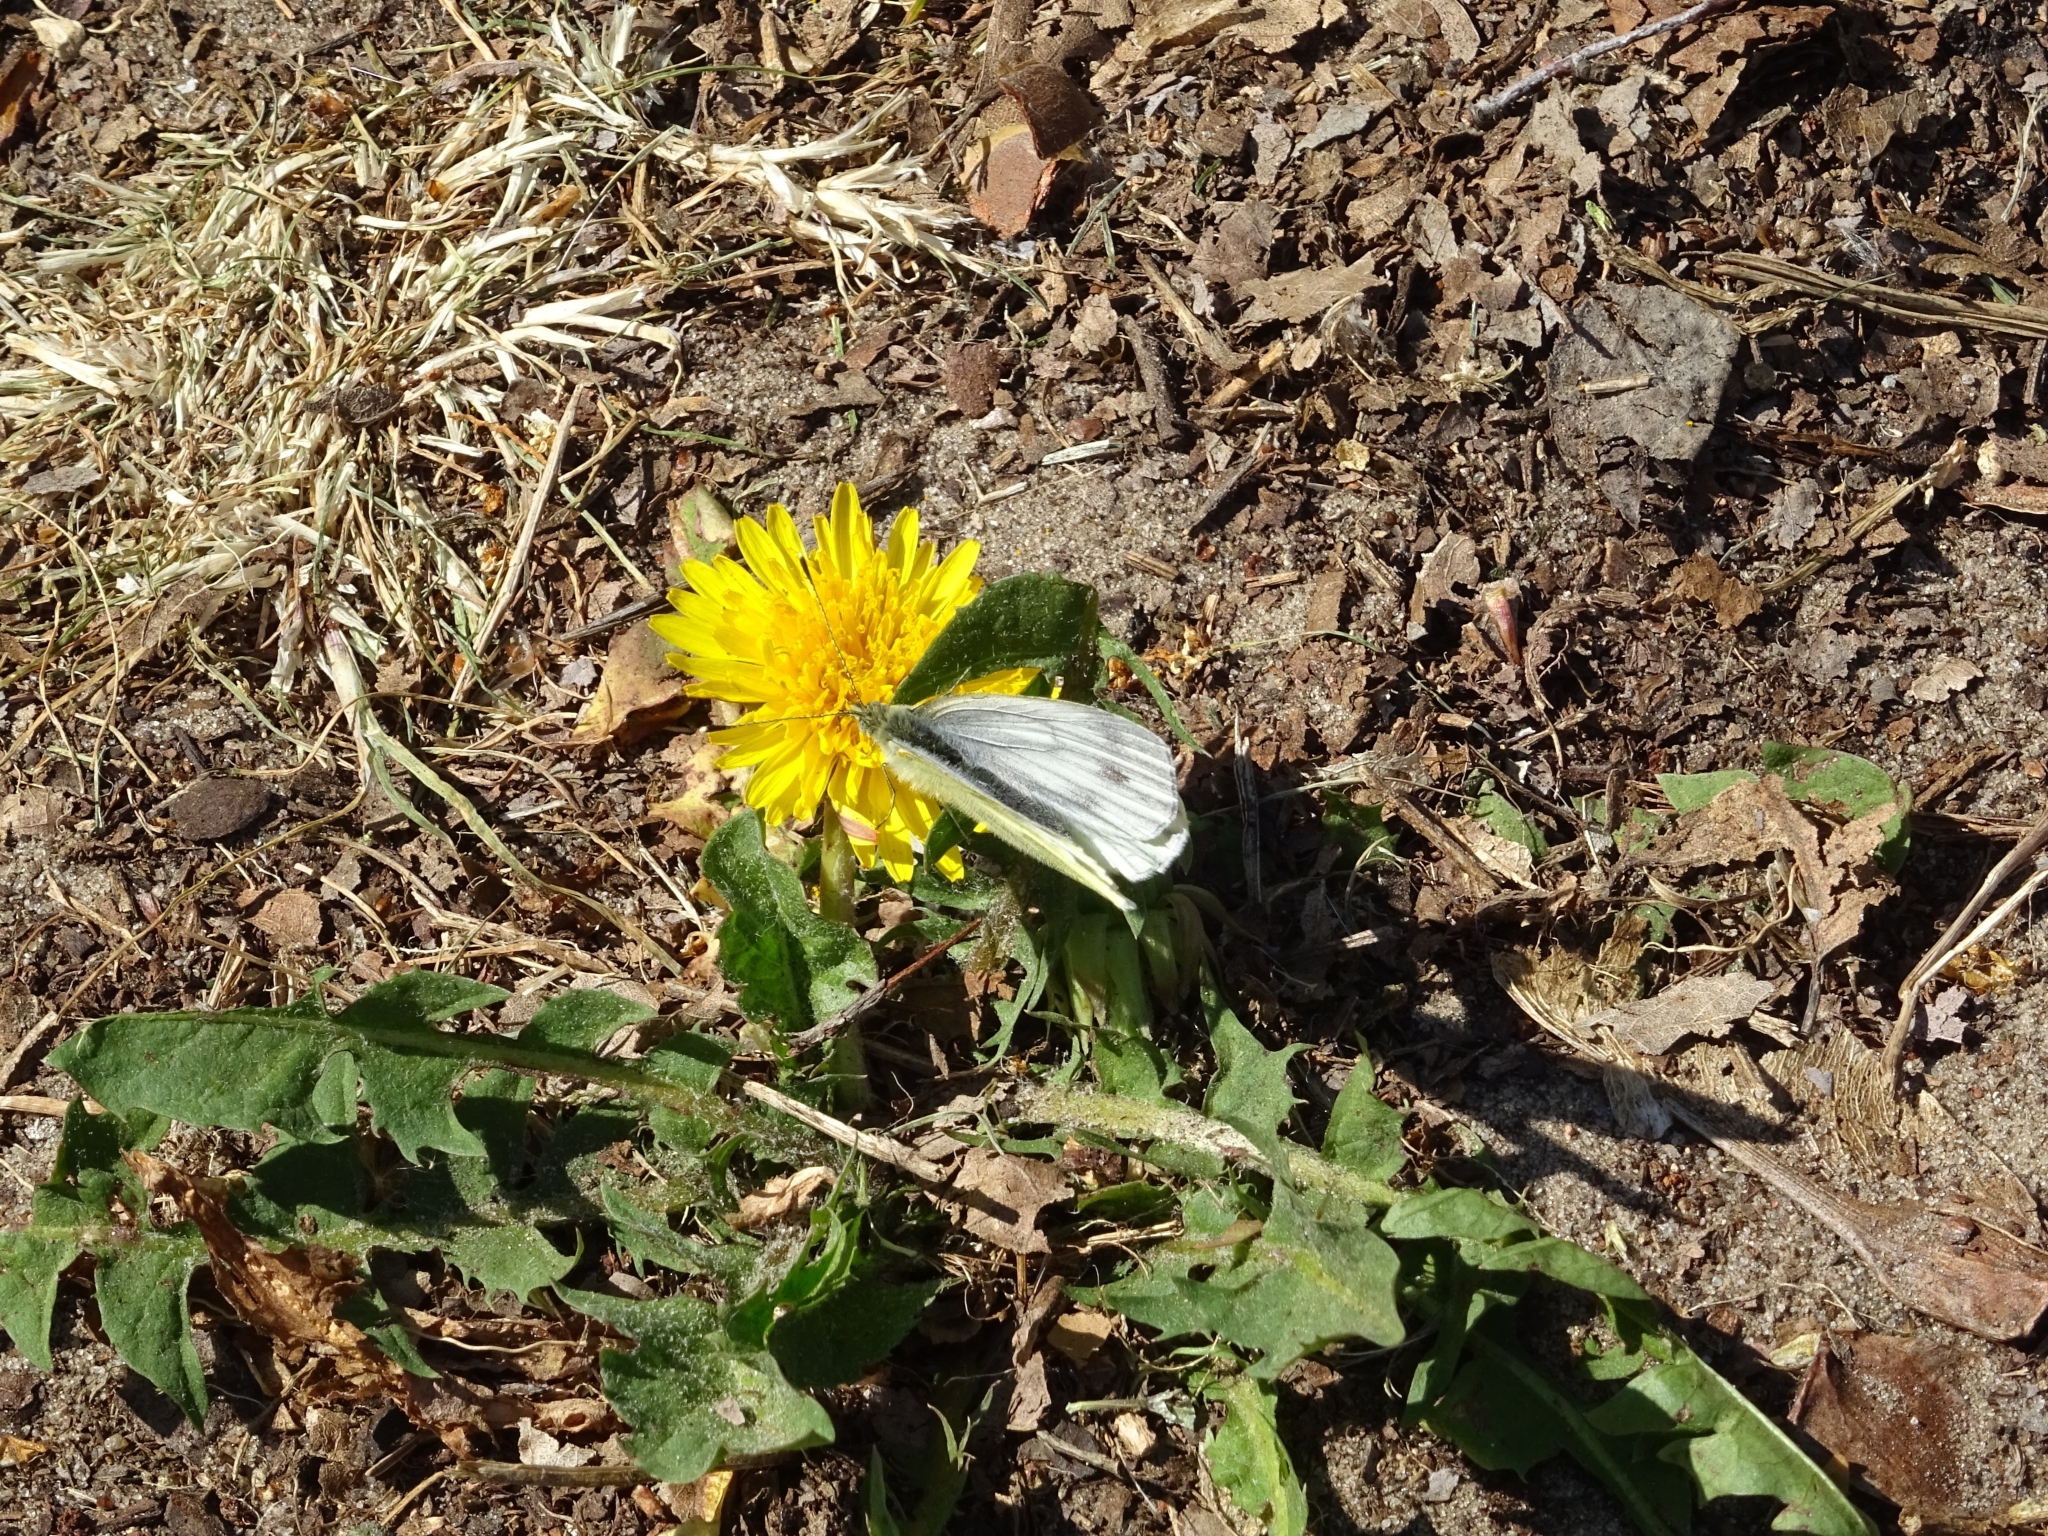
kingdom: Animalia
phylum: Arthropoda
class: Insecta
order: Lepidoptera
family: Pieridae
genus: Pieris
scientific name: Pieris napi
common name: Green-veined white
